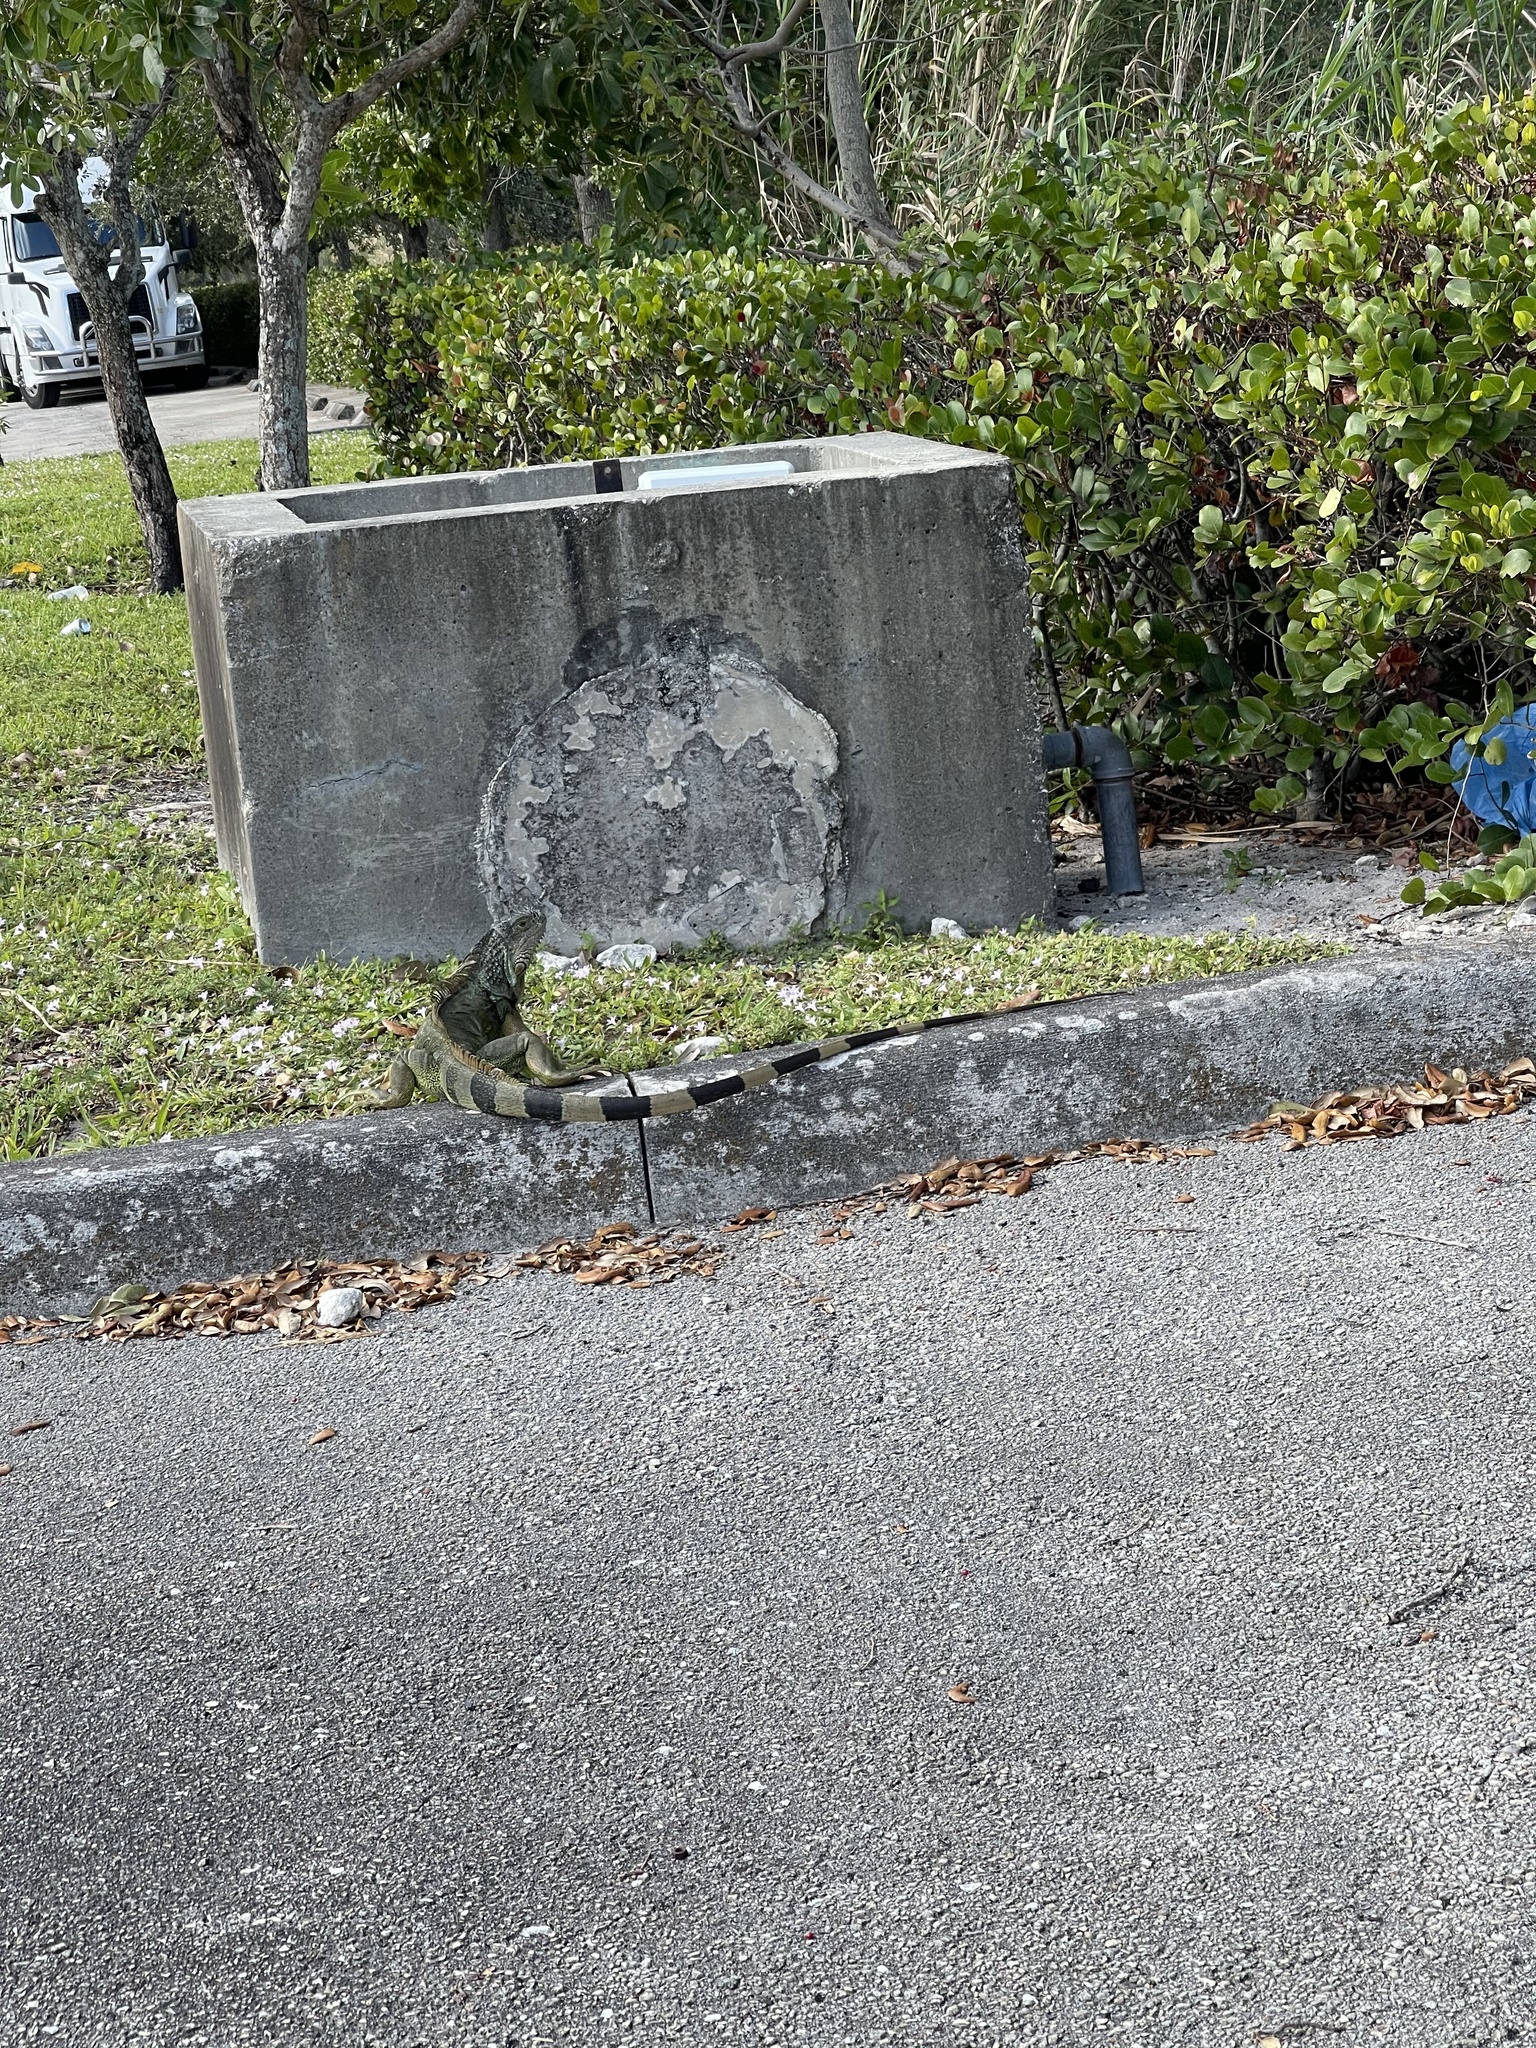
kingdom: Animalia
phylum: Chordata
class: Squamata
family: Iguanidae
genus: Iguana
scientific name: Iguana iguana
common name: Green iguana
